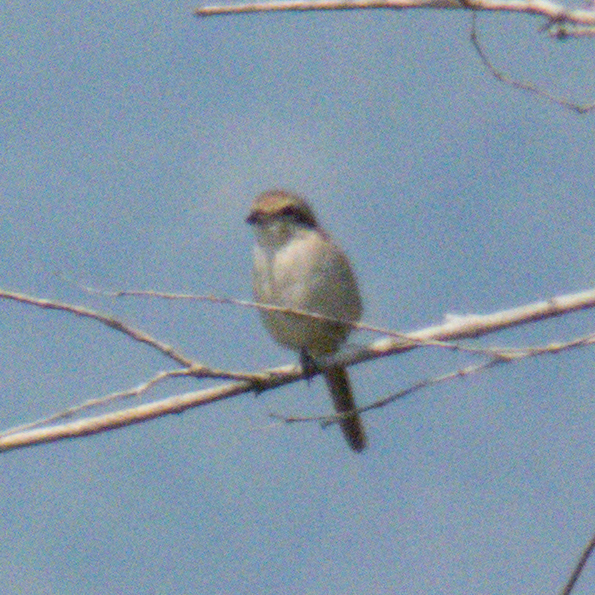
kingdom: Animalia
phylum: Chordata
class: Aves
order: Passeriformes
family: Laniidae
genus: Lanius
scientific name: Lanius cristatus
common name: Brown shrike
